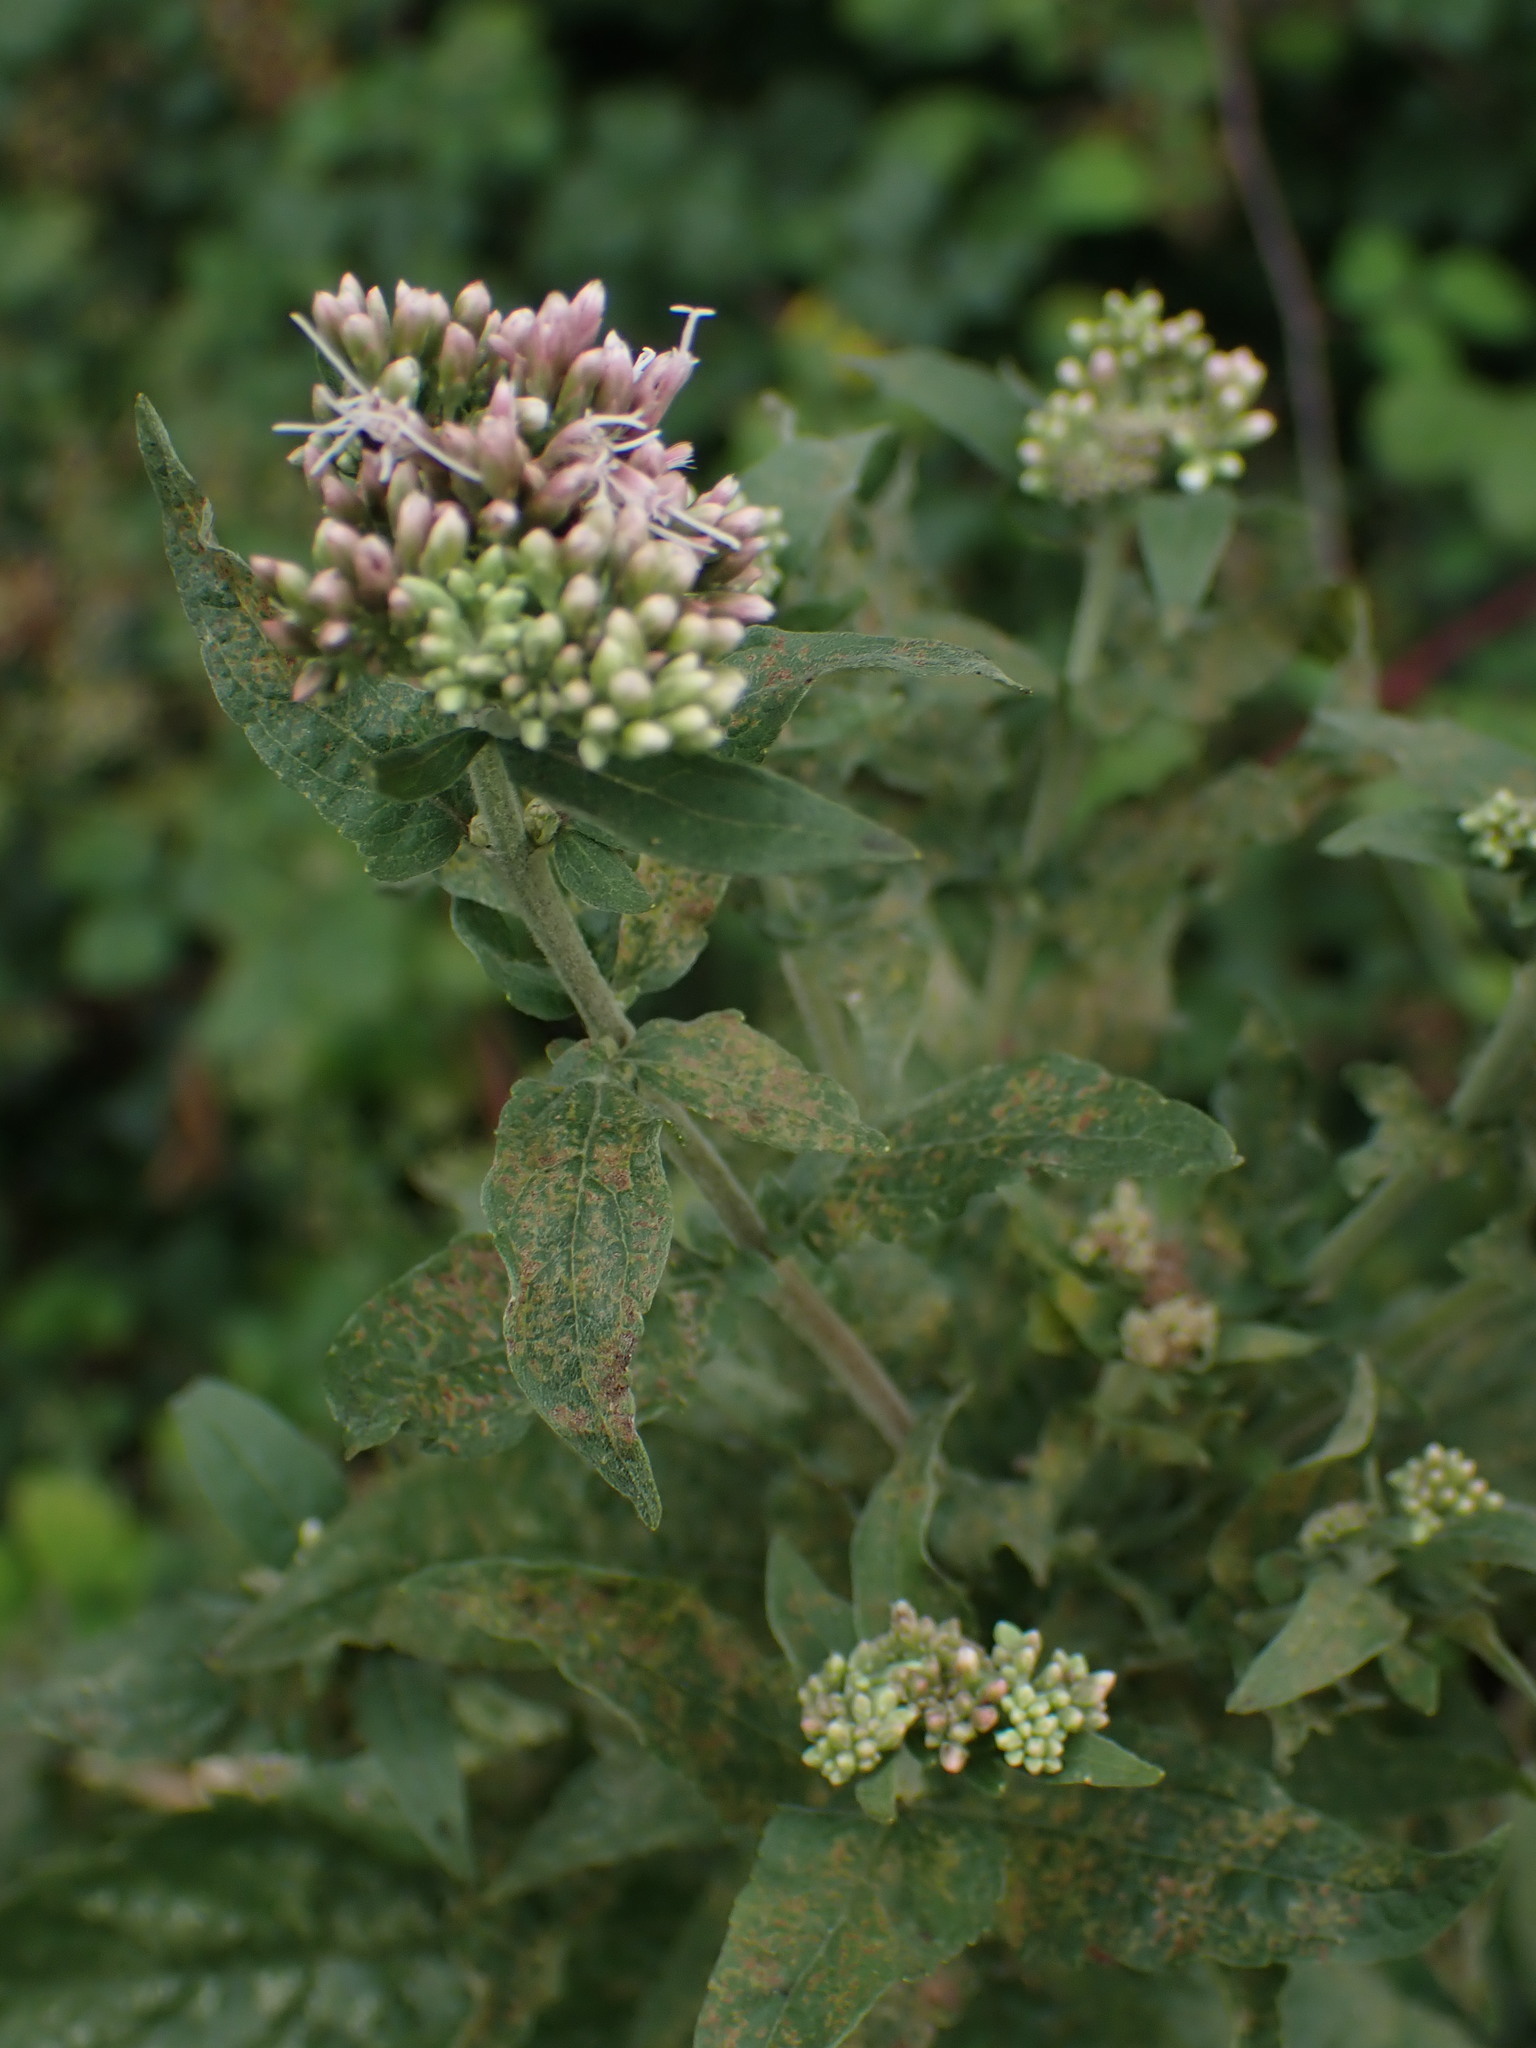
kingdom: Plantae
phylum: Tracheophyta
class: Magnoliopsida
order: Asterales
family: Asteraceae
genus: Eupatorium
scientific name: Eupatorium cannabinum
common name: Hemp-agrimony
